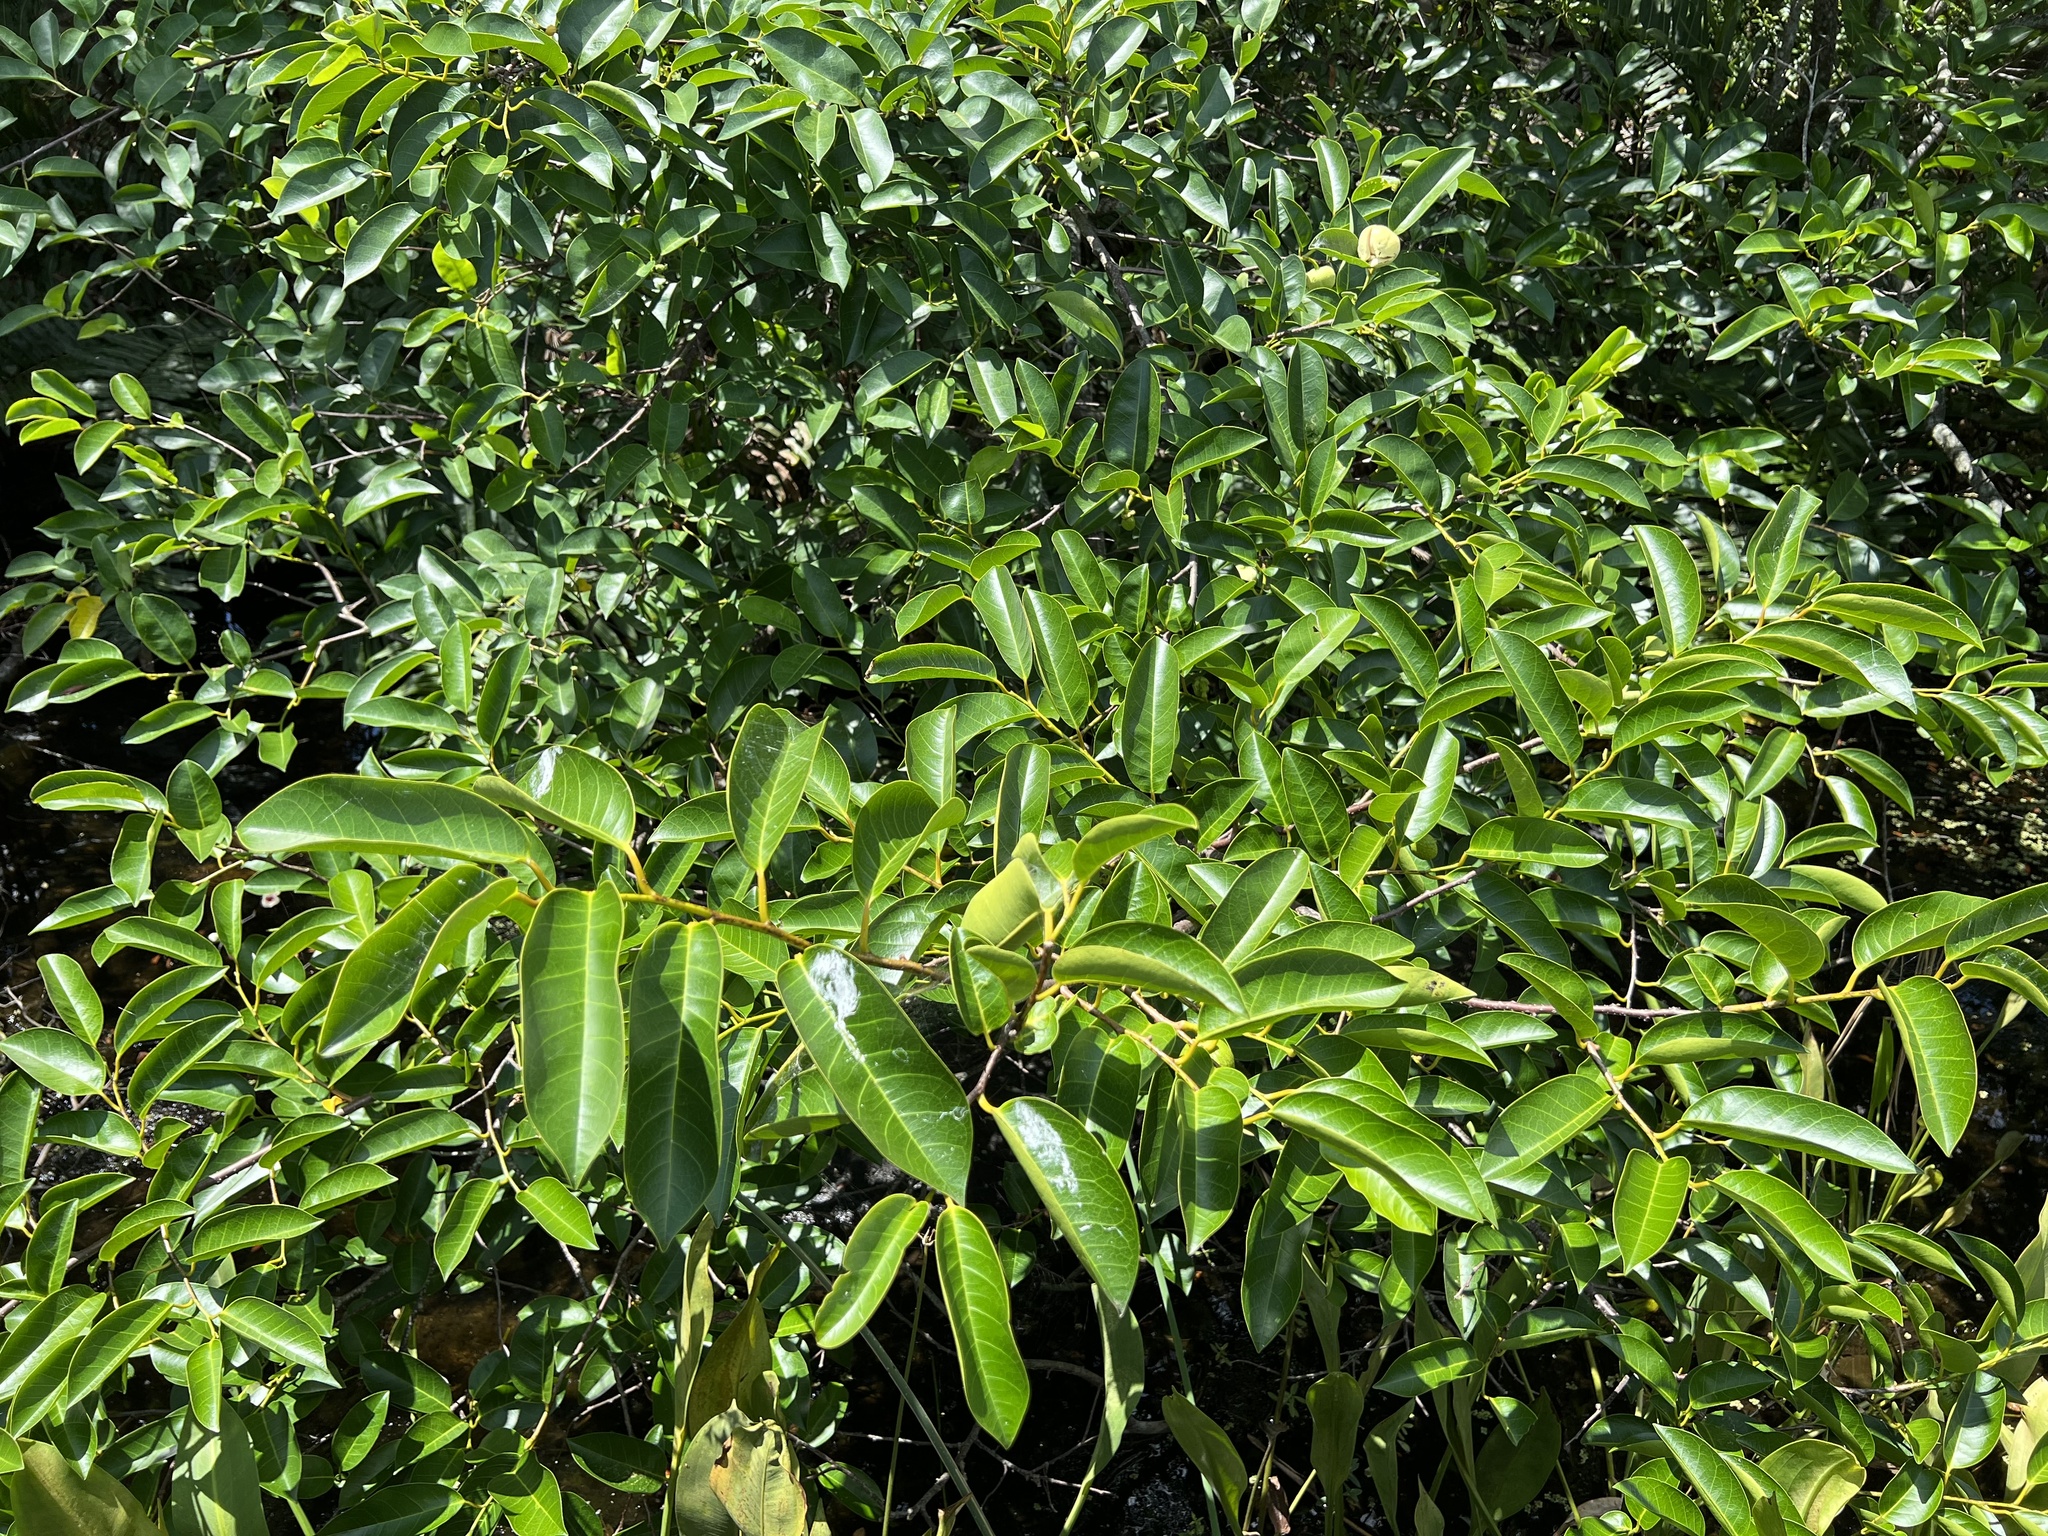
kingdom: Plantae
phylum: Tracheophyta
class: Magnoliopsida
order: Magnoliales
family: Annonaceae
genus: Annona
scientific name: Annona glabra
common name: Monkey apple
